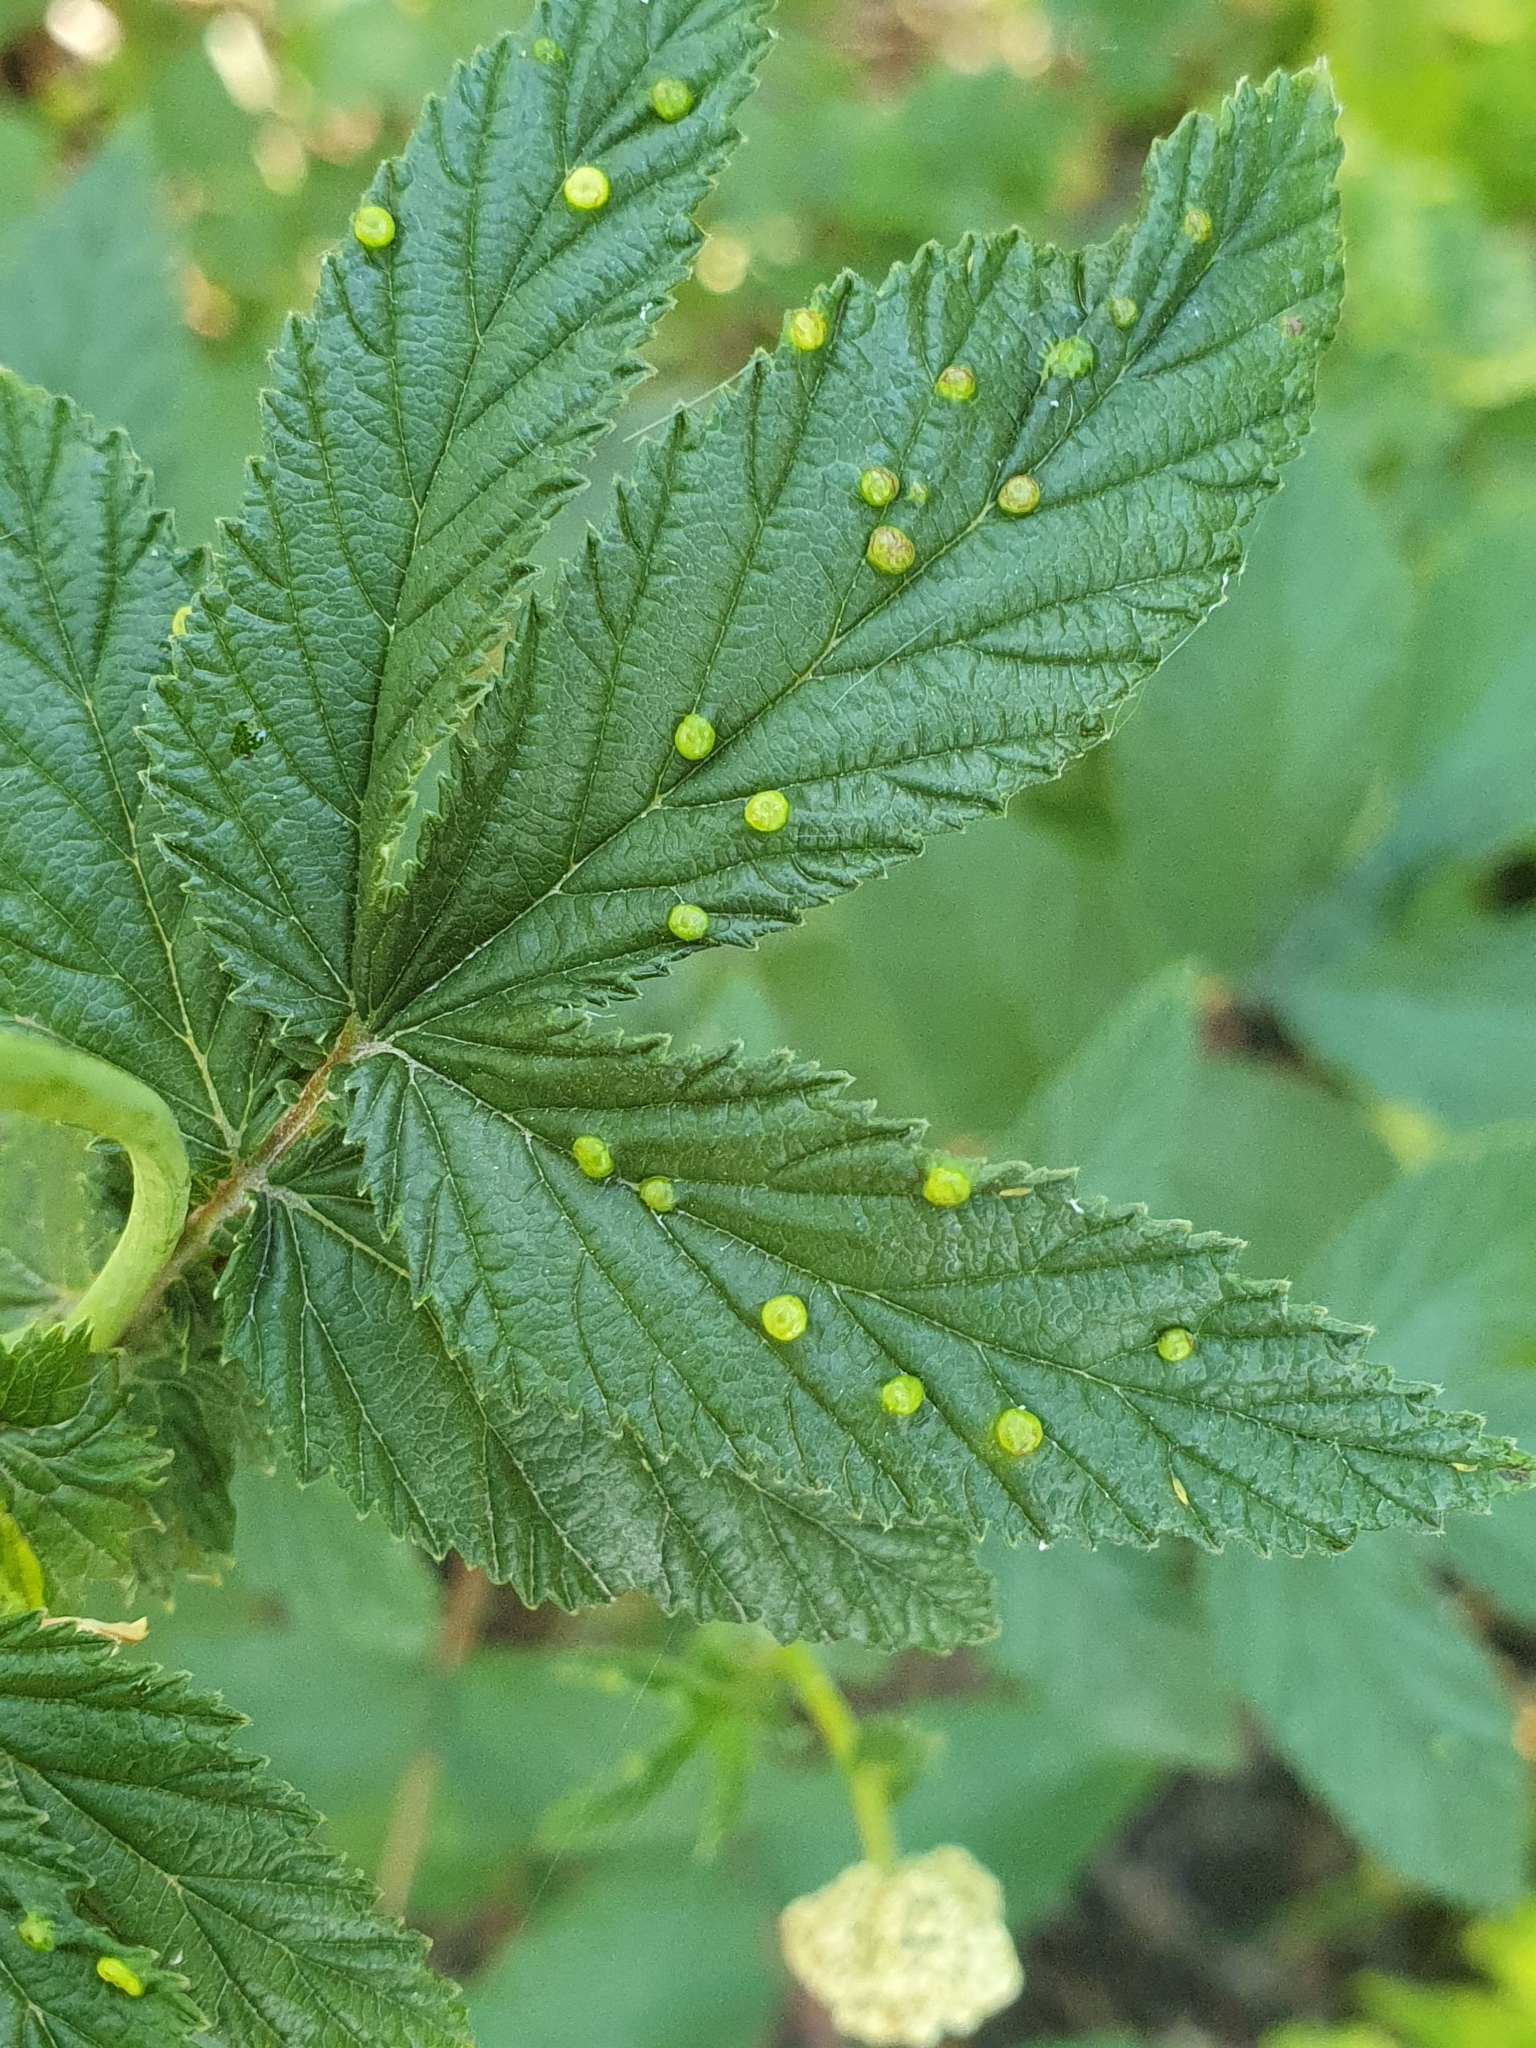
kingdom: Animalia
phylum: Arthropoda
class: Insecta
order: Diptera
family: Cecidomyiidae
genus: Dasineura
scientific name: Dasineura ulmaria
